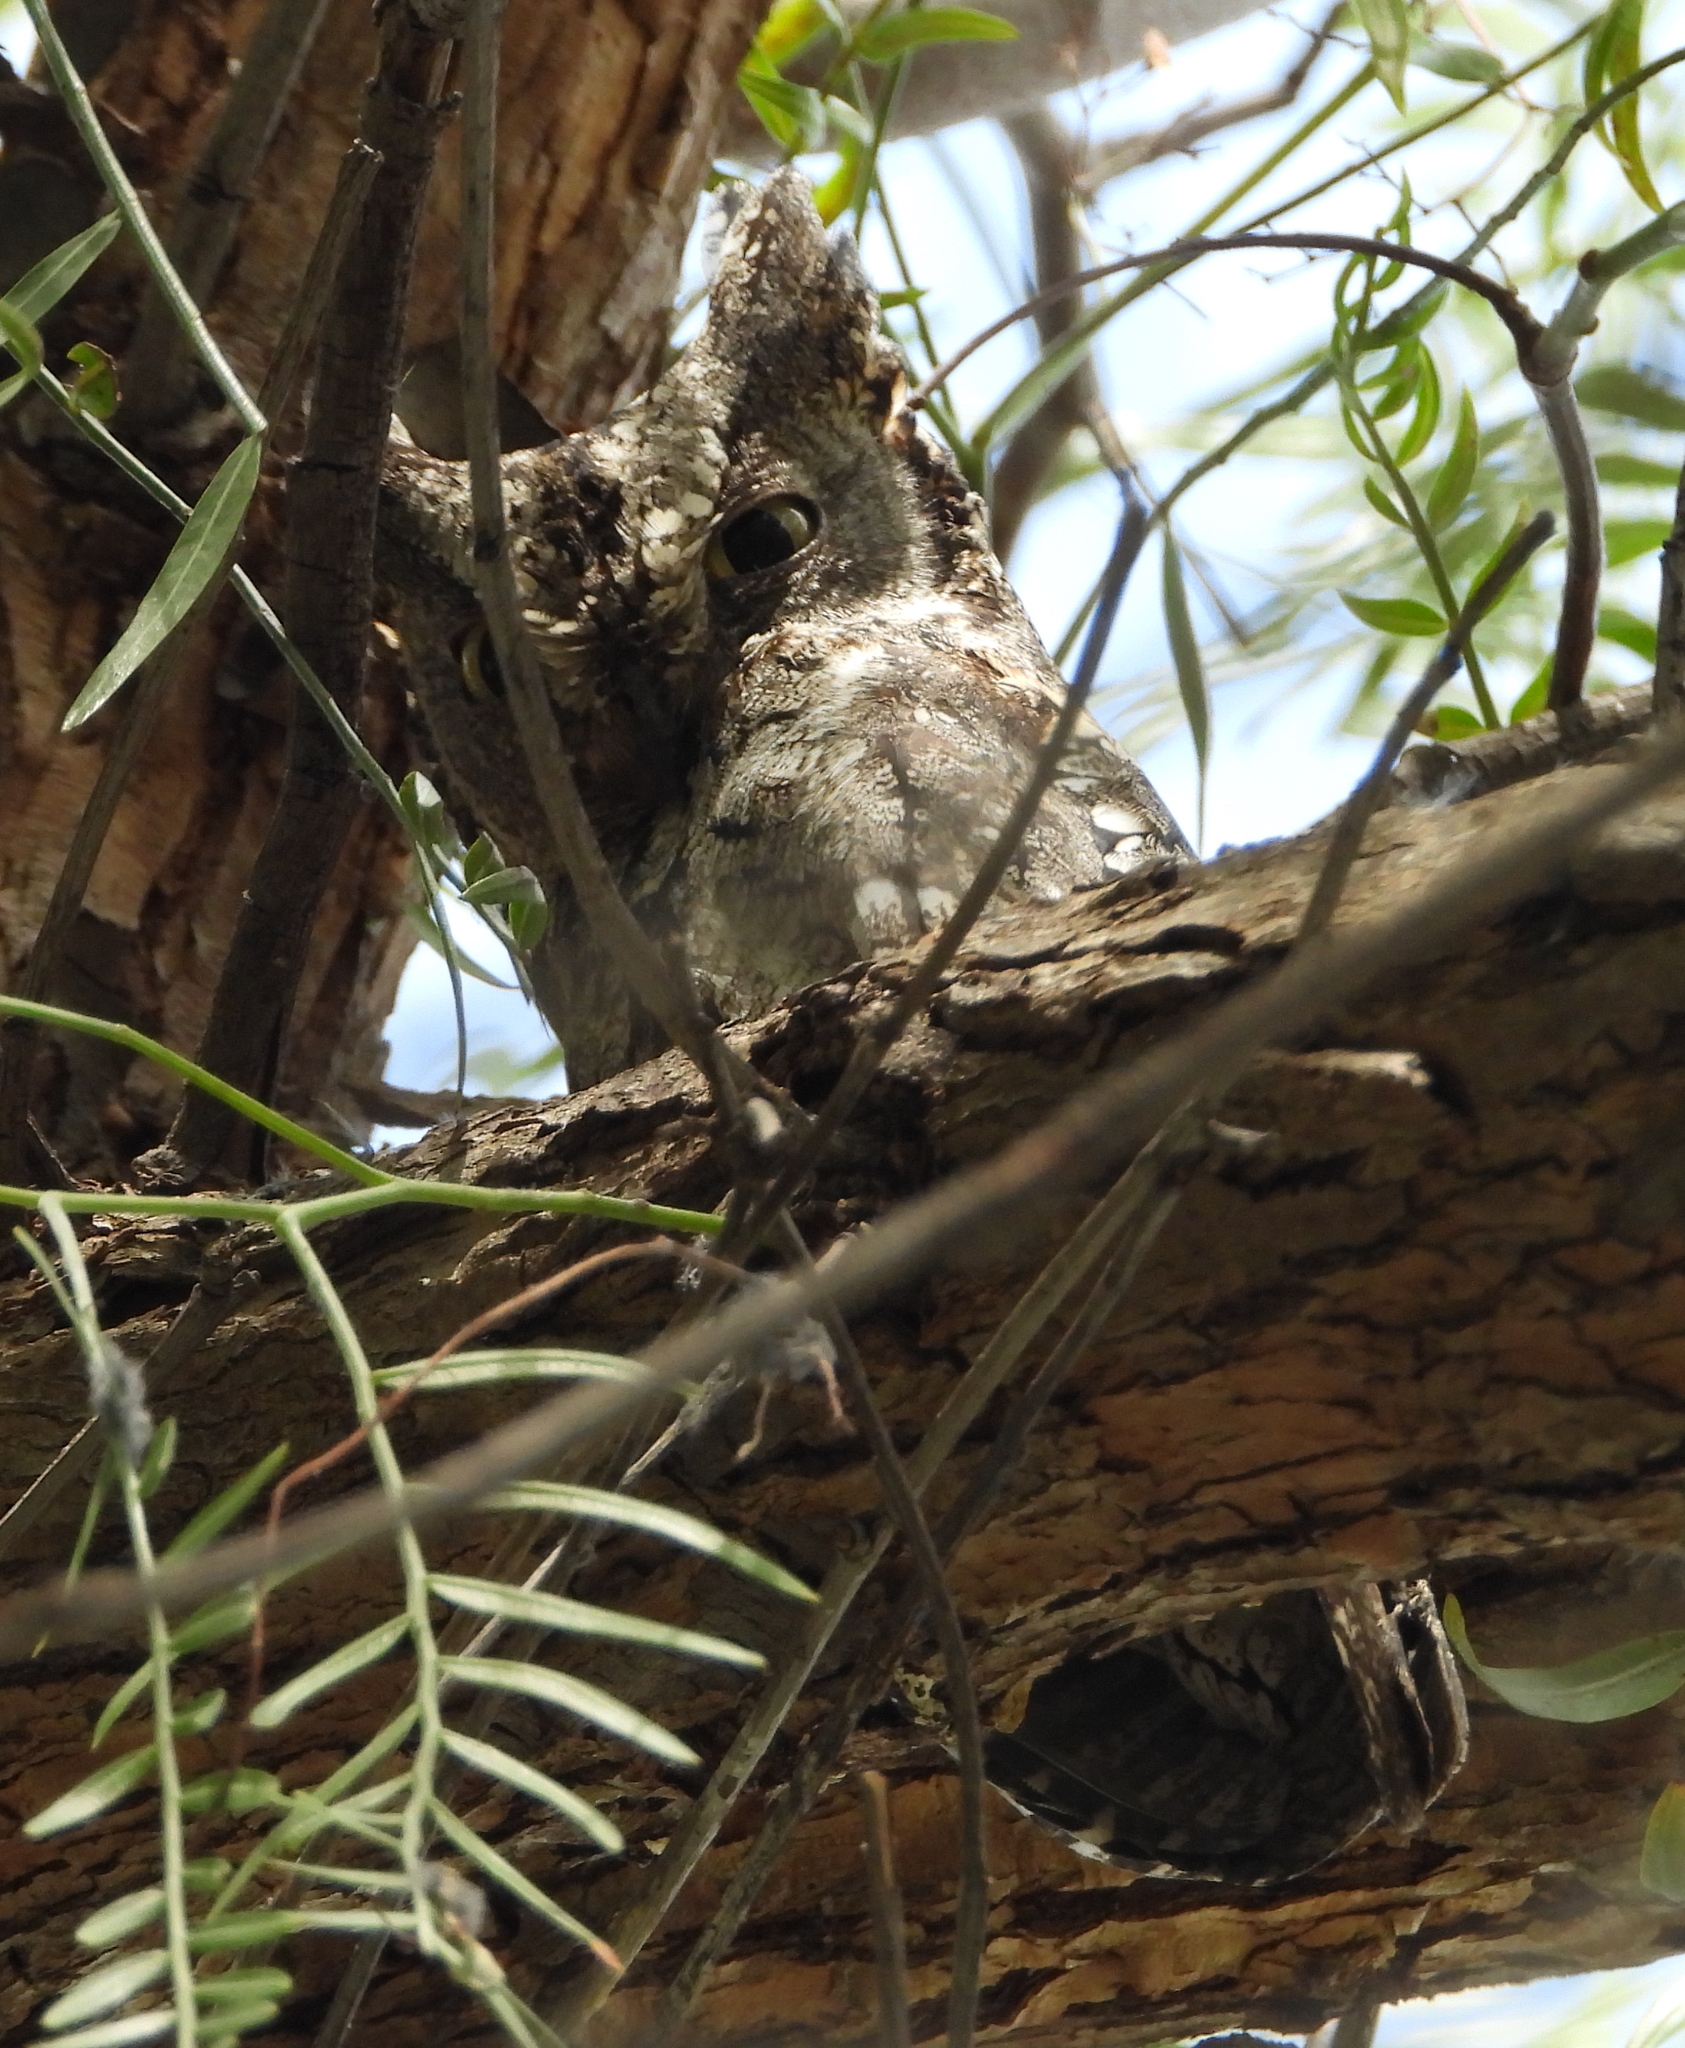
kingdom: Animalia
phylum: Chordata
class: Aves
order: Strigiformes
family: Strigidae
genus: Otus
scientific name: Otus cyprius
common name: Cyprus scops owl
